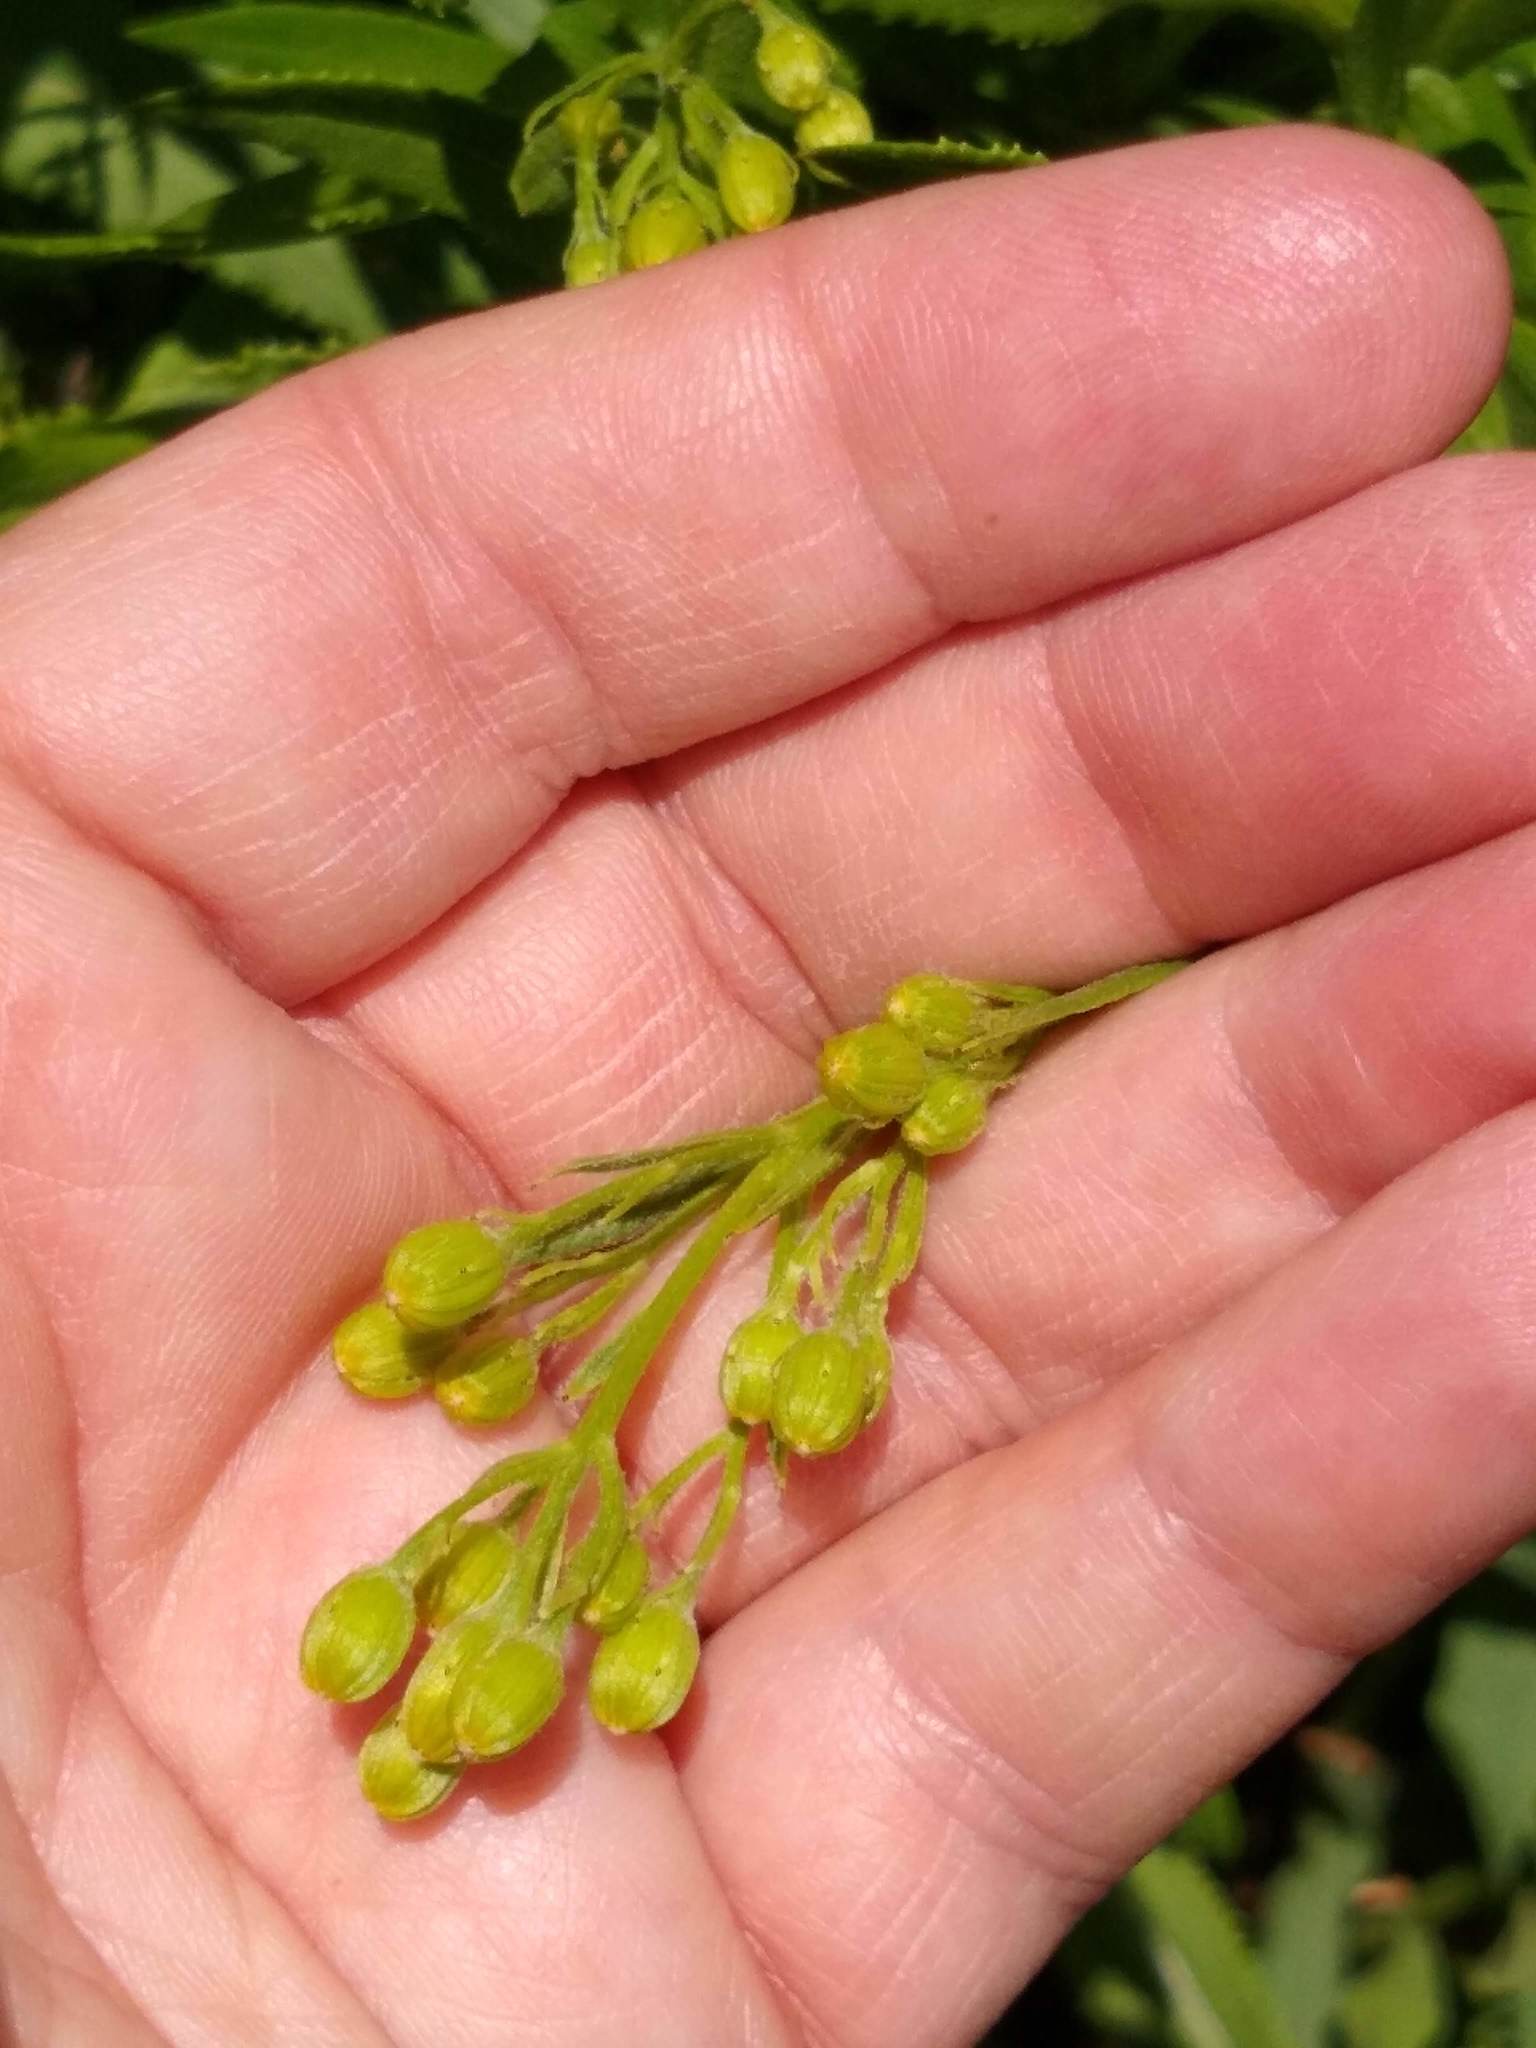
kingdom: Plantae
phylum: Tracheophyta
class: Magnoliopsida
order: Asterales
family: Asteraceae
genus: Senecio
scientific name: Senecio serra
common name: Tall ragwort
